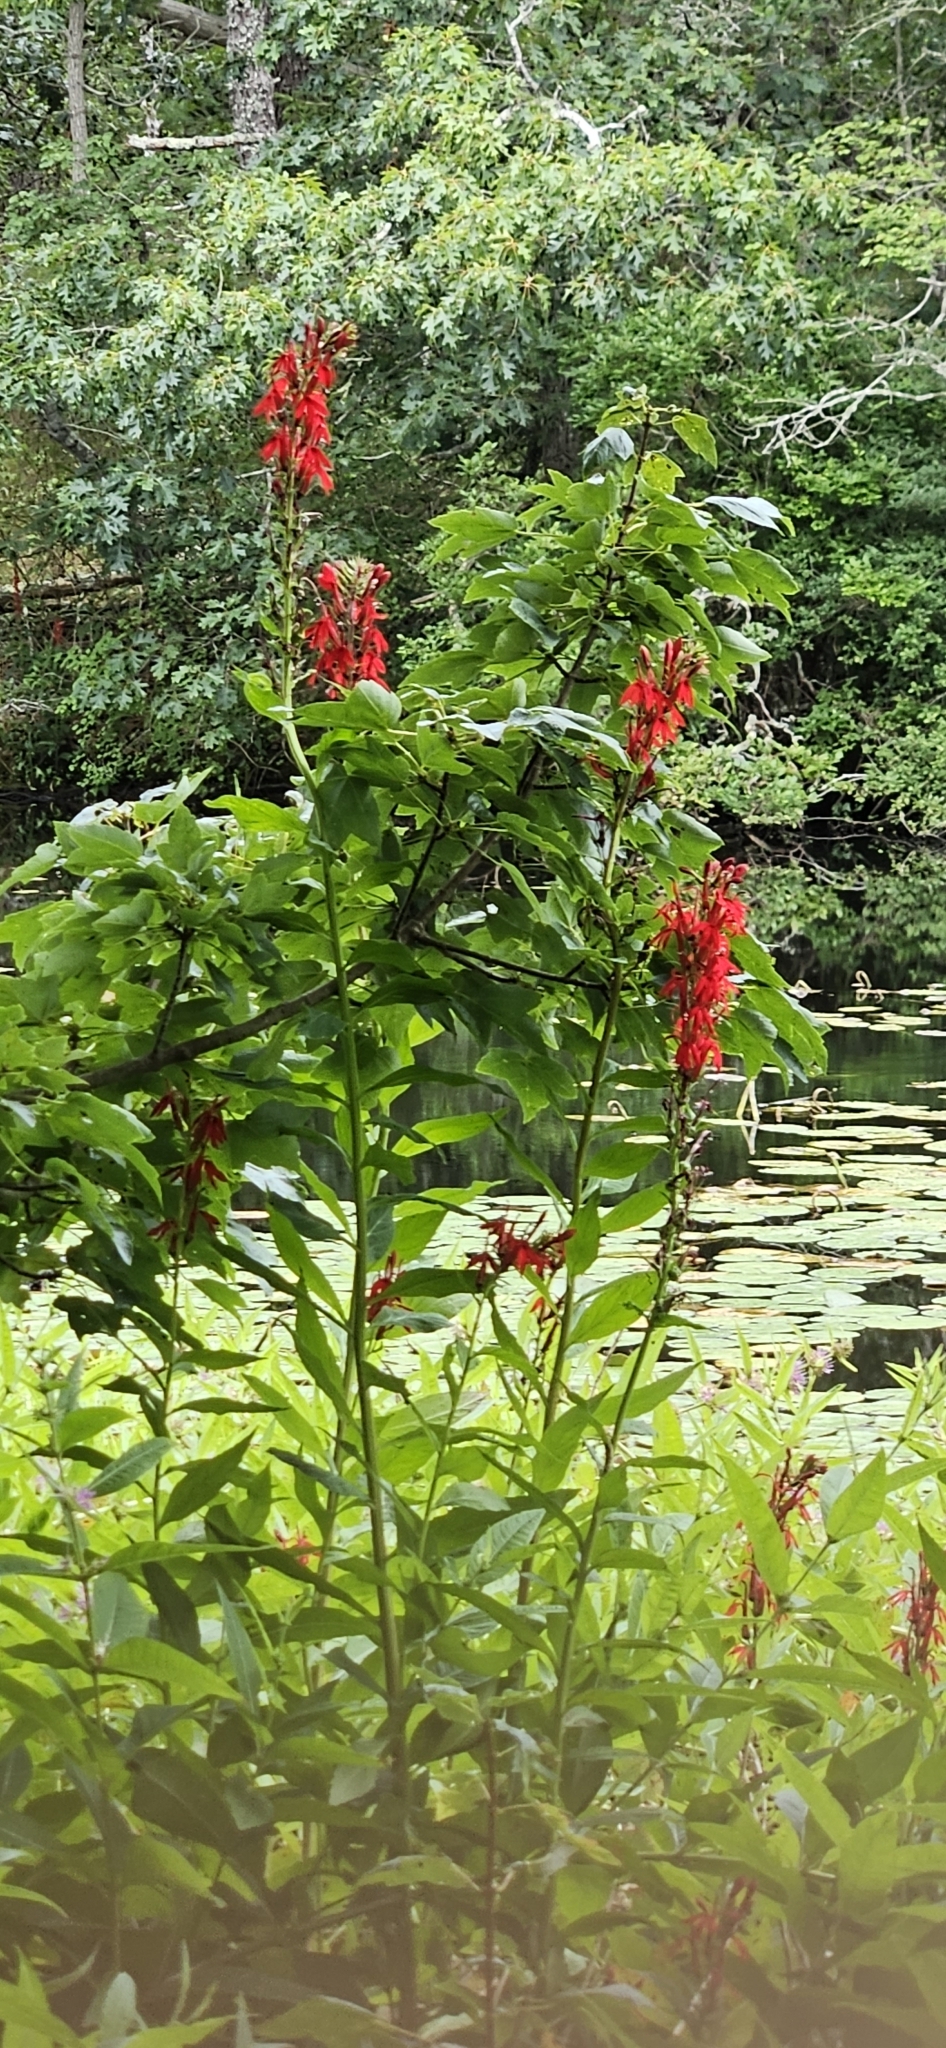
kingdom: Plantae
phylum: Tracheophyta
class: Magnoliopsida
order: Asterales
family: Campanulaceae
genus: Lobelia
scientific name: Lobelia cardinalis
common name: Cardinal flower
